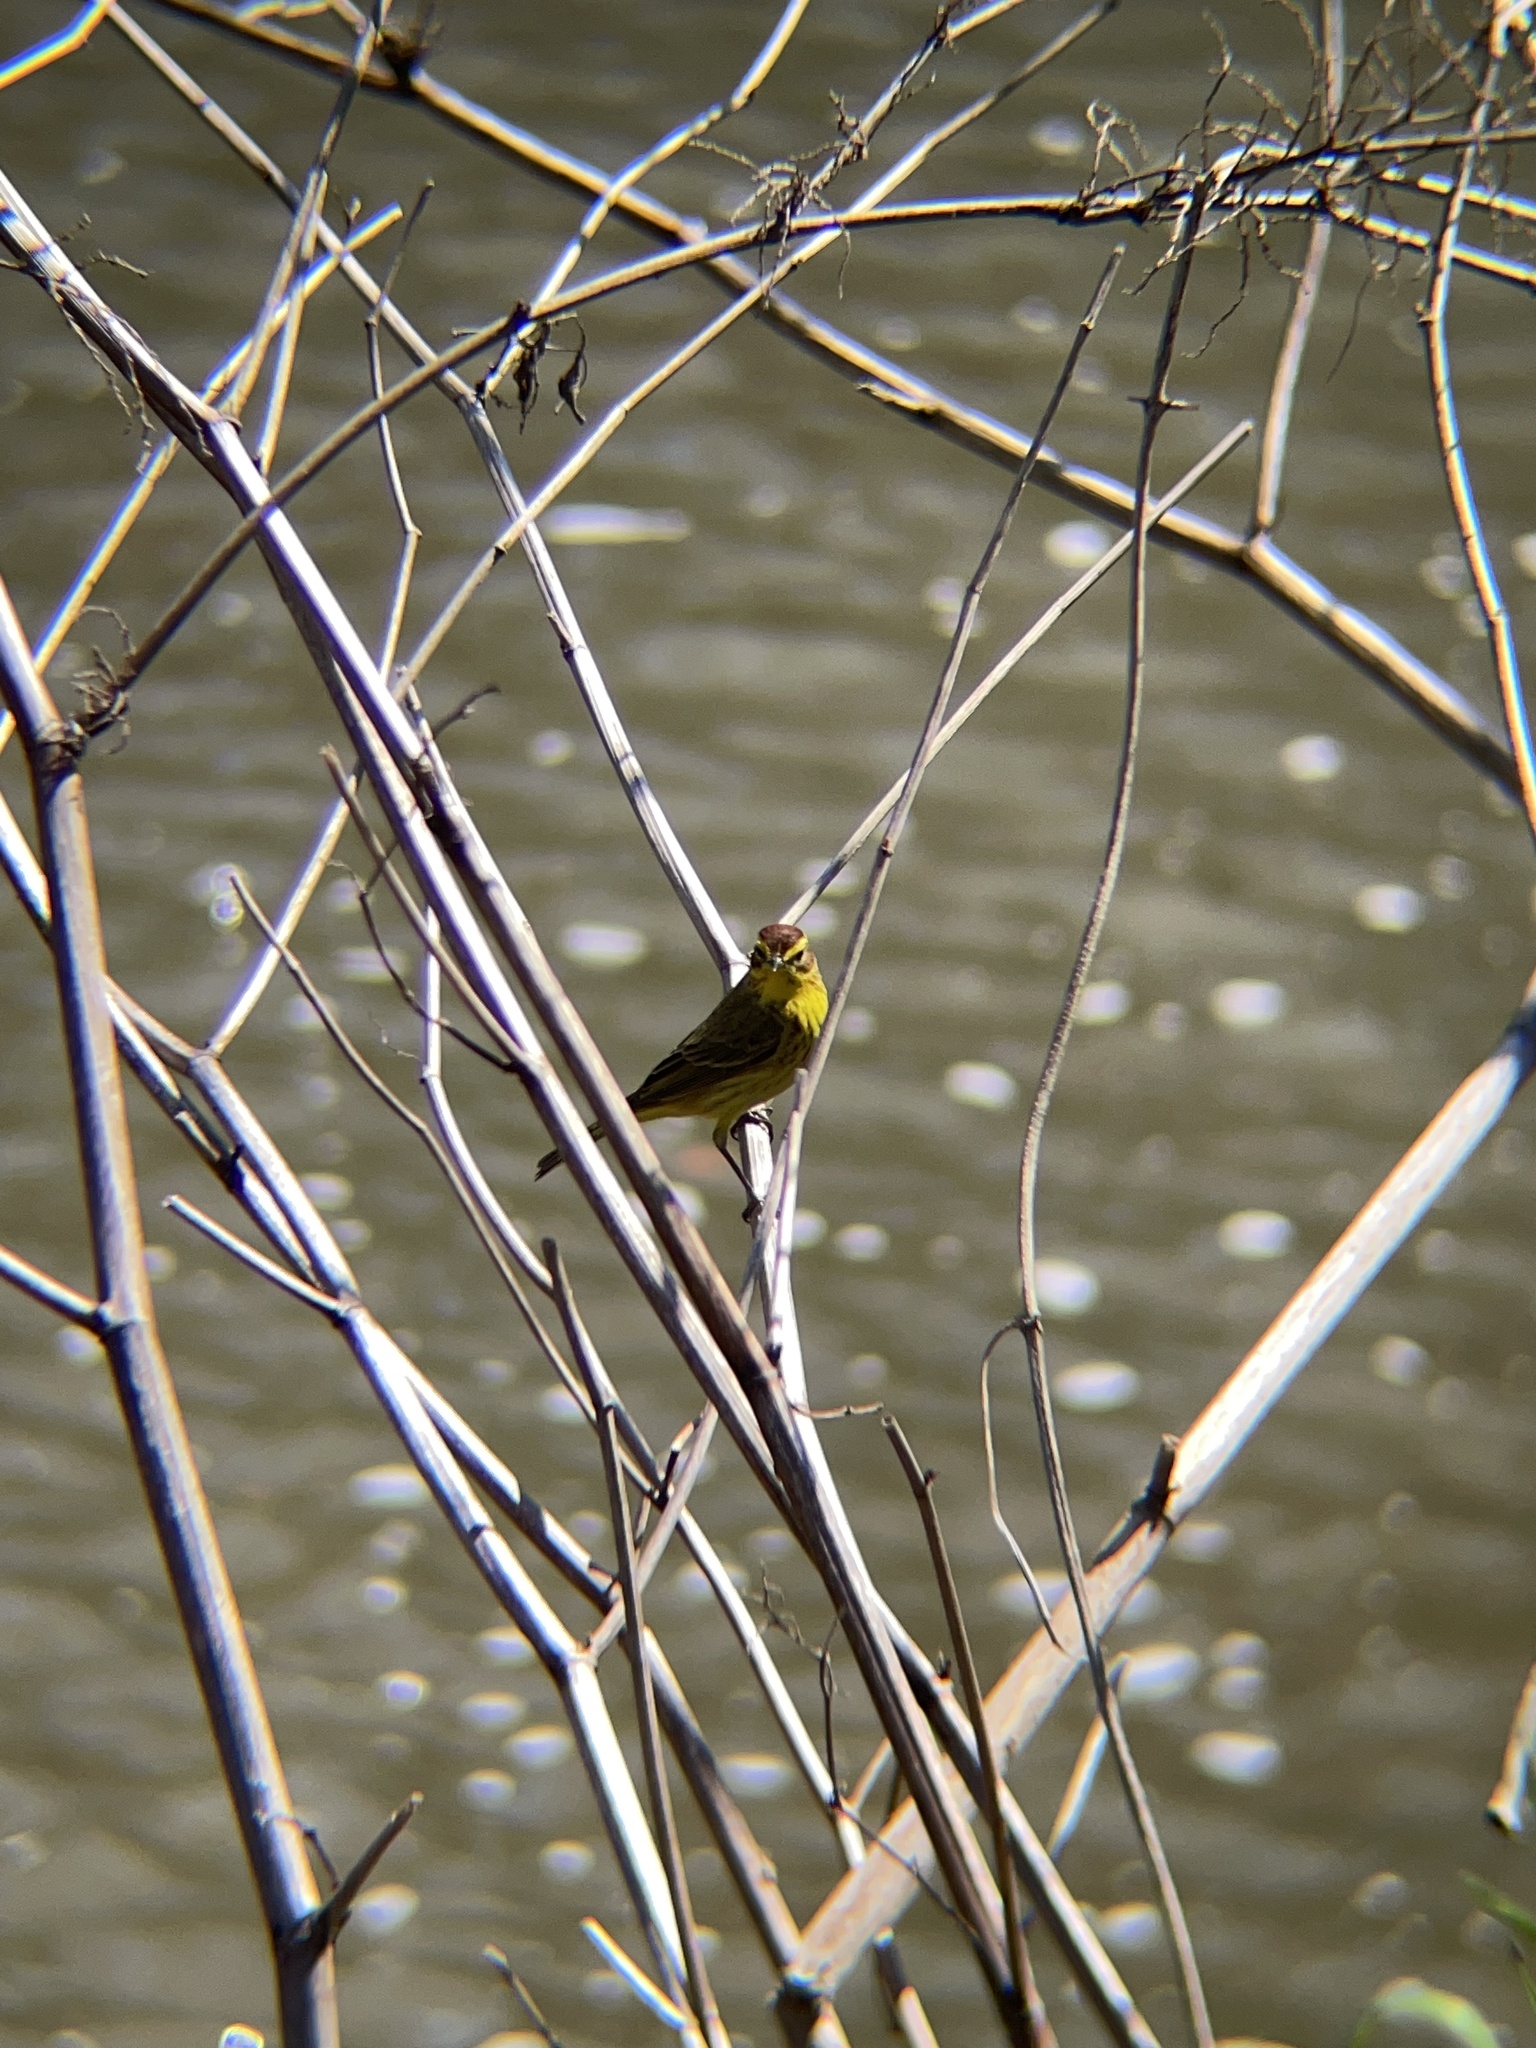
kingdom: Animalia
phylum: Chordata
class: Aves
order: Passeriformes
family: Parulidae
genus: Setophaga
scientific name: Setophaga palmarum
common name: Palm warbler
